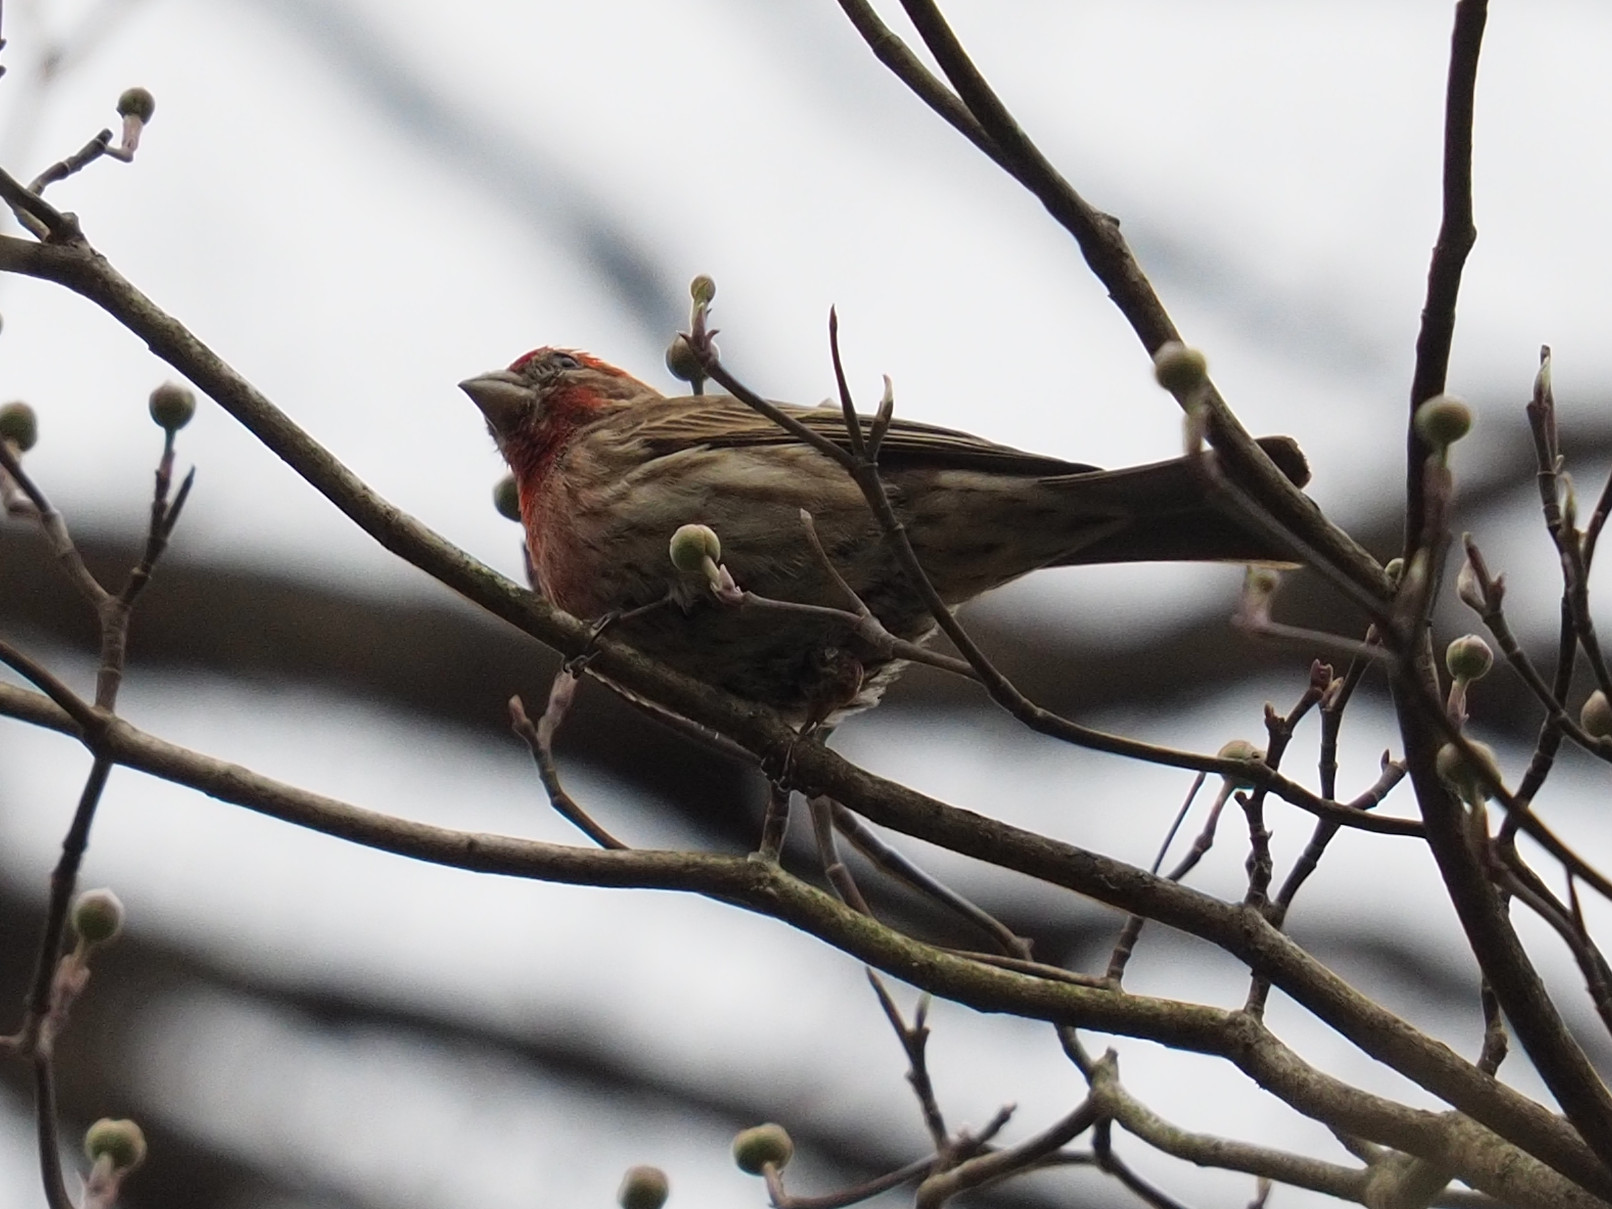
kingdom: Animalia
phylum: Chordata
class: Aves
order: Passeriformes
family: Fringillidae
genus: Haemorhous
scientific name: Haemorhous mexicanus
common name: House finch
